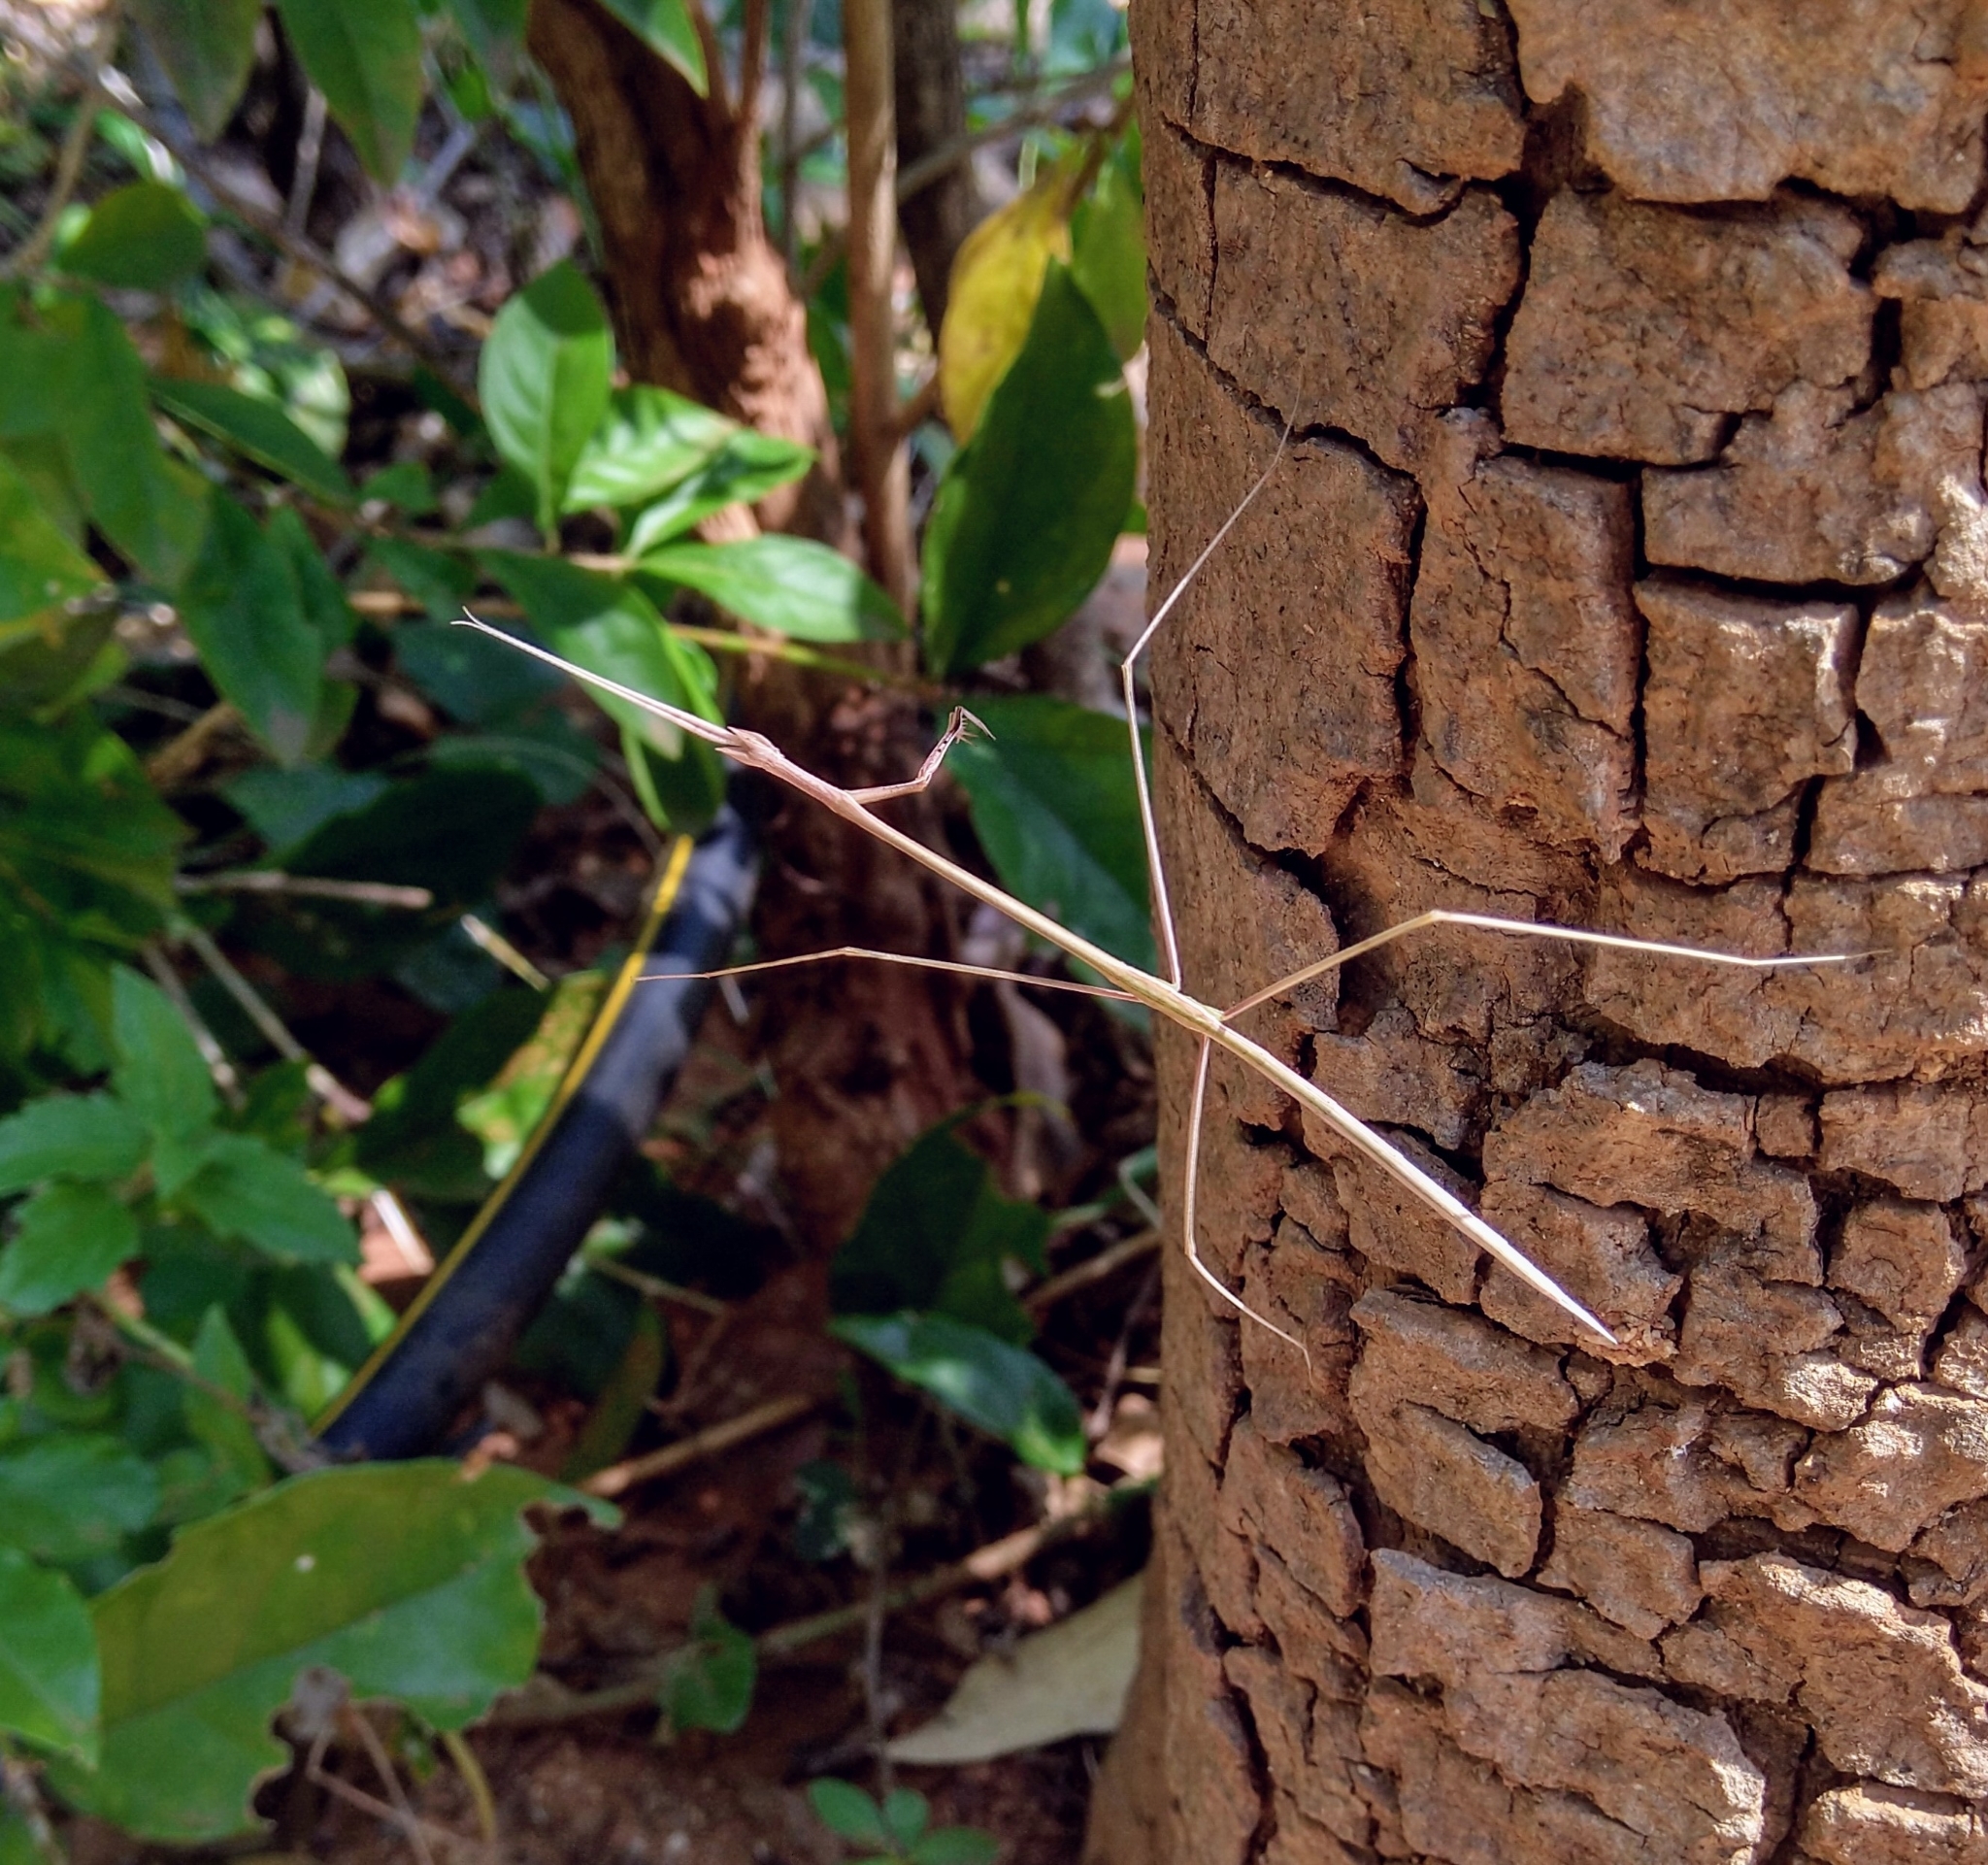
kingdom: Animalia
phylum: Arthropoda
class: Insecta
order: Mantodea
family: Eremiaphilidae
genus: Schizocephala
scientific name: Schizocephala bicornis
